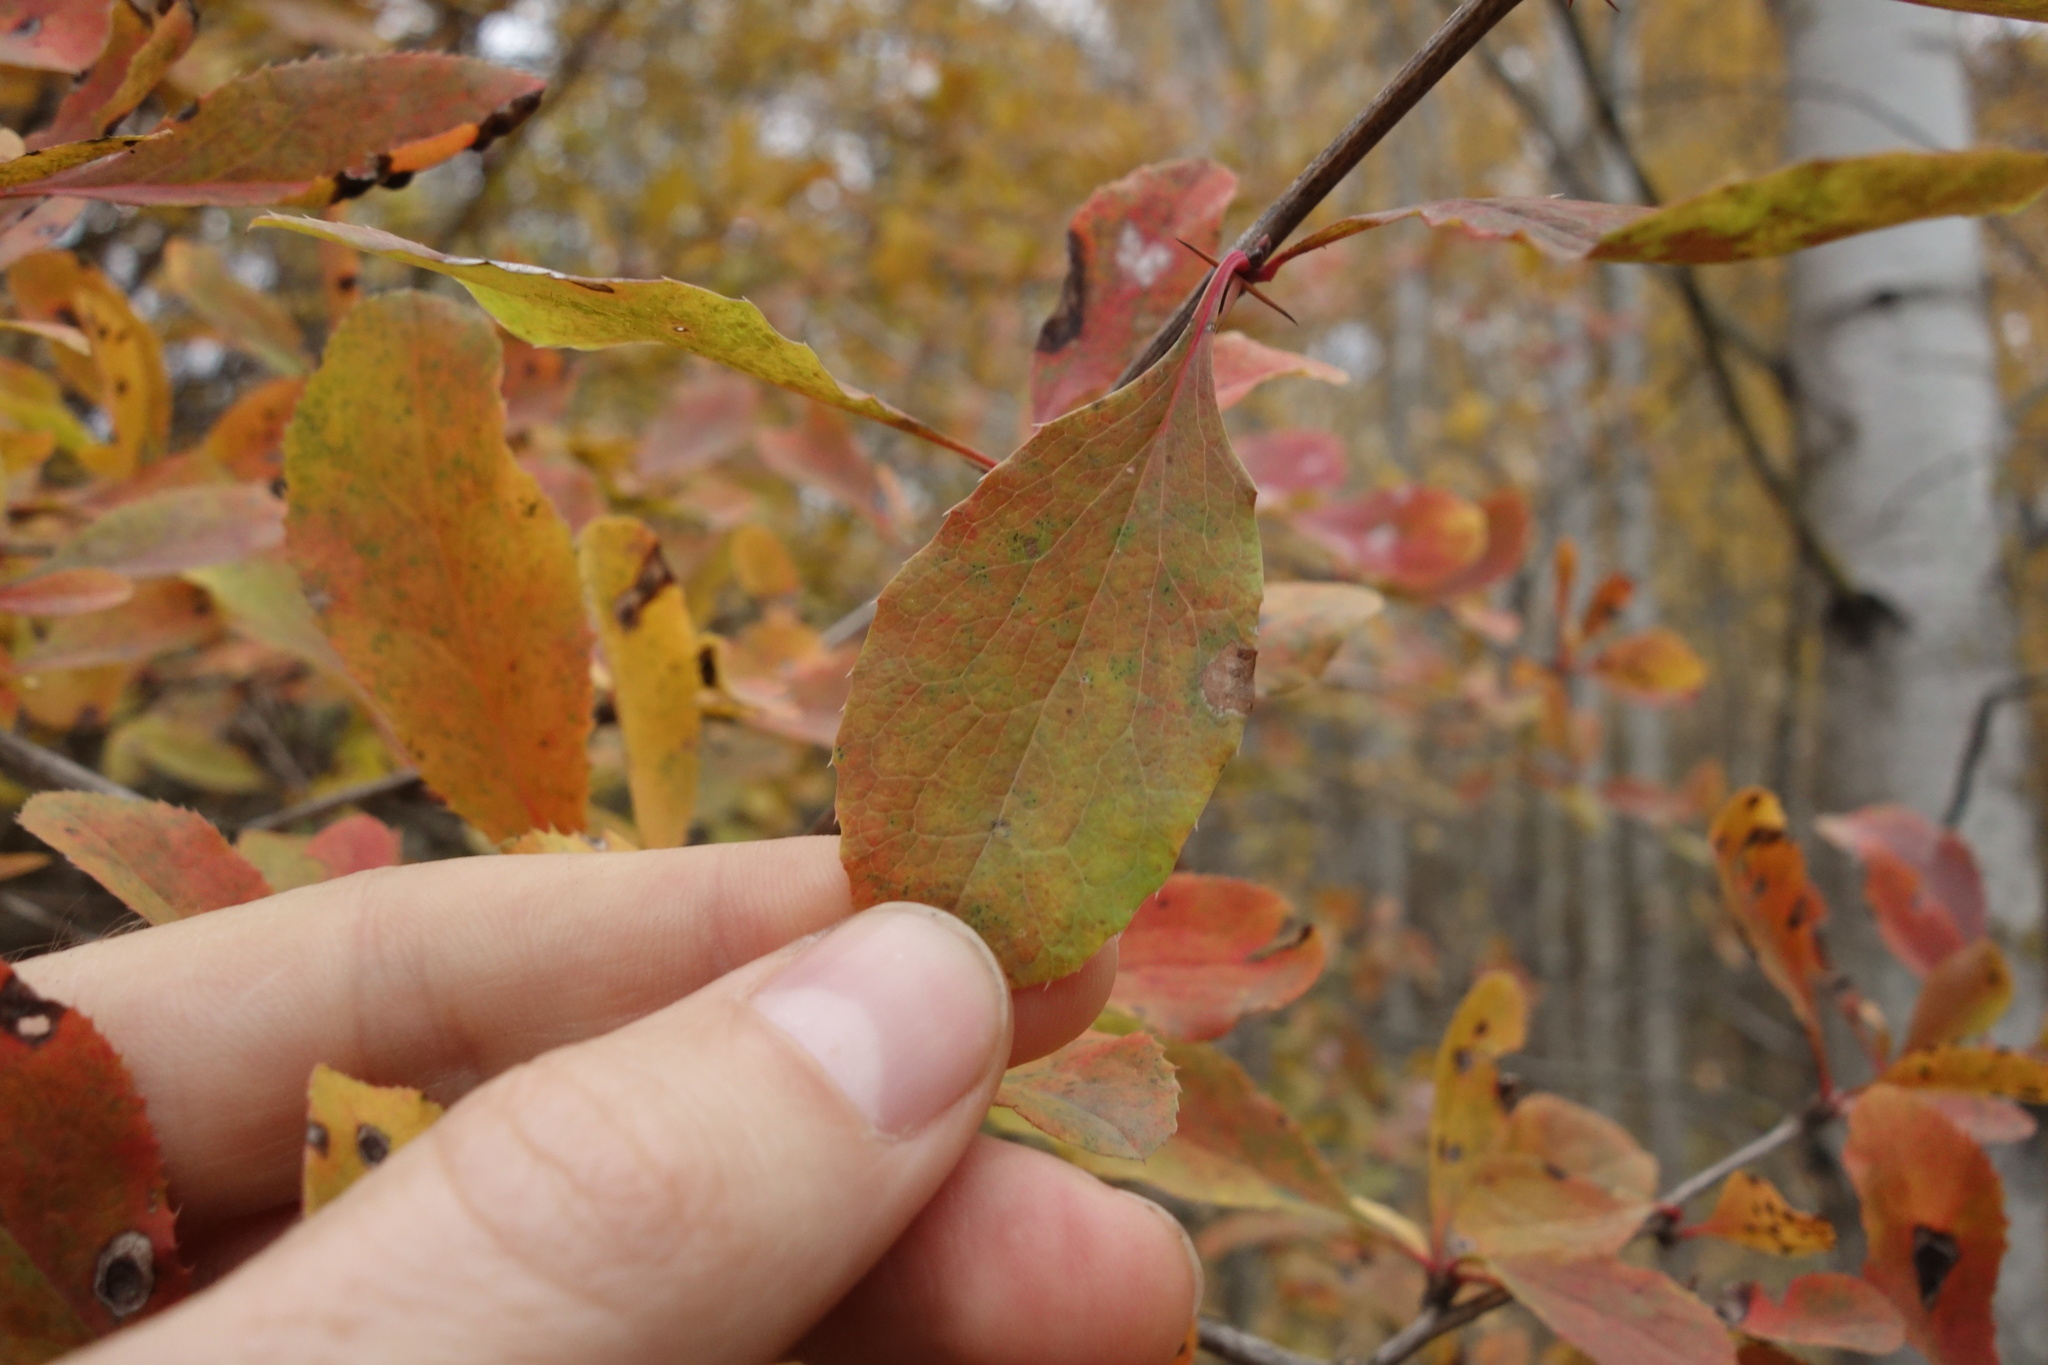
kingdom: Plantae
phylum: Tracheophyta
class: Magnoliopsida
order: Ranunculales
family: Berberidaceae
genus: Berberis
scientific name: Berberis vulgaris
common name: Barberry
